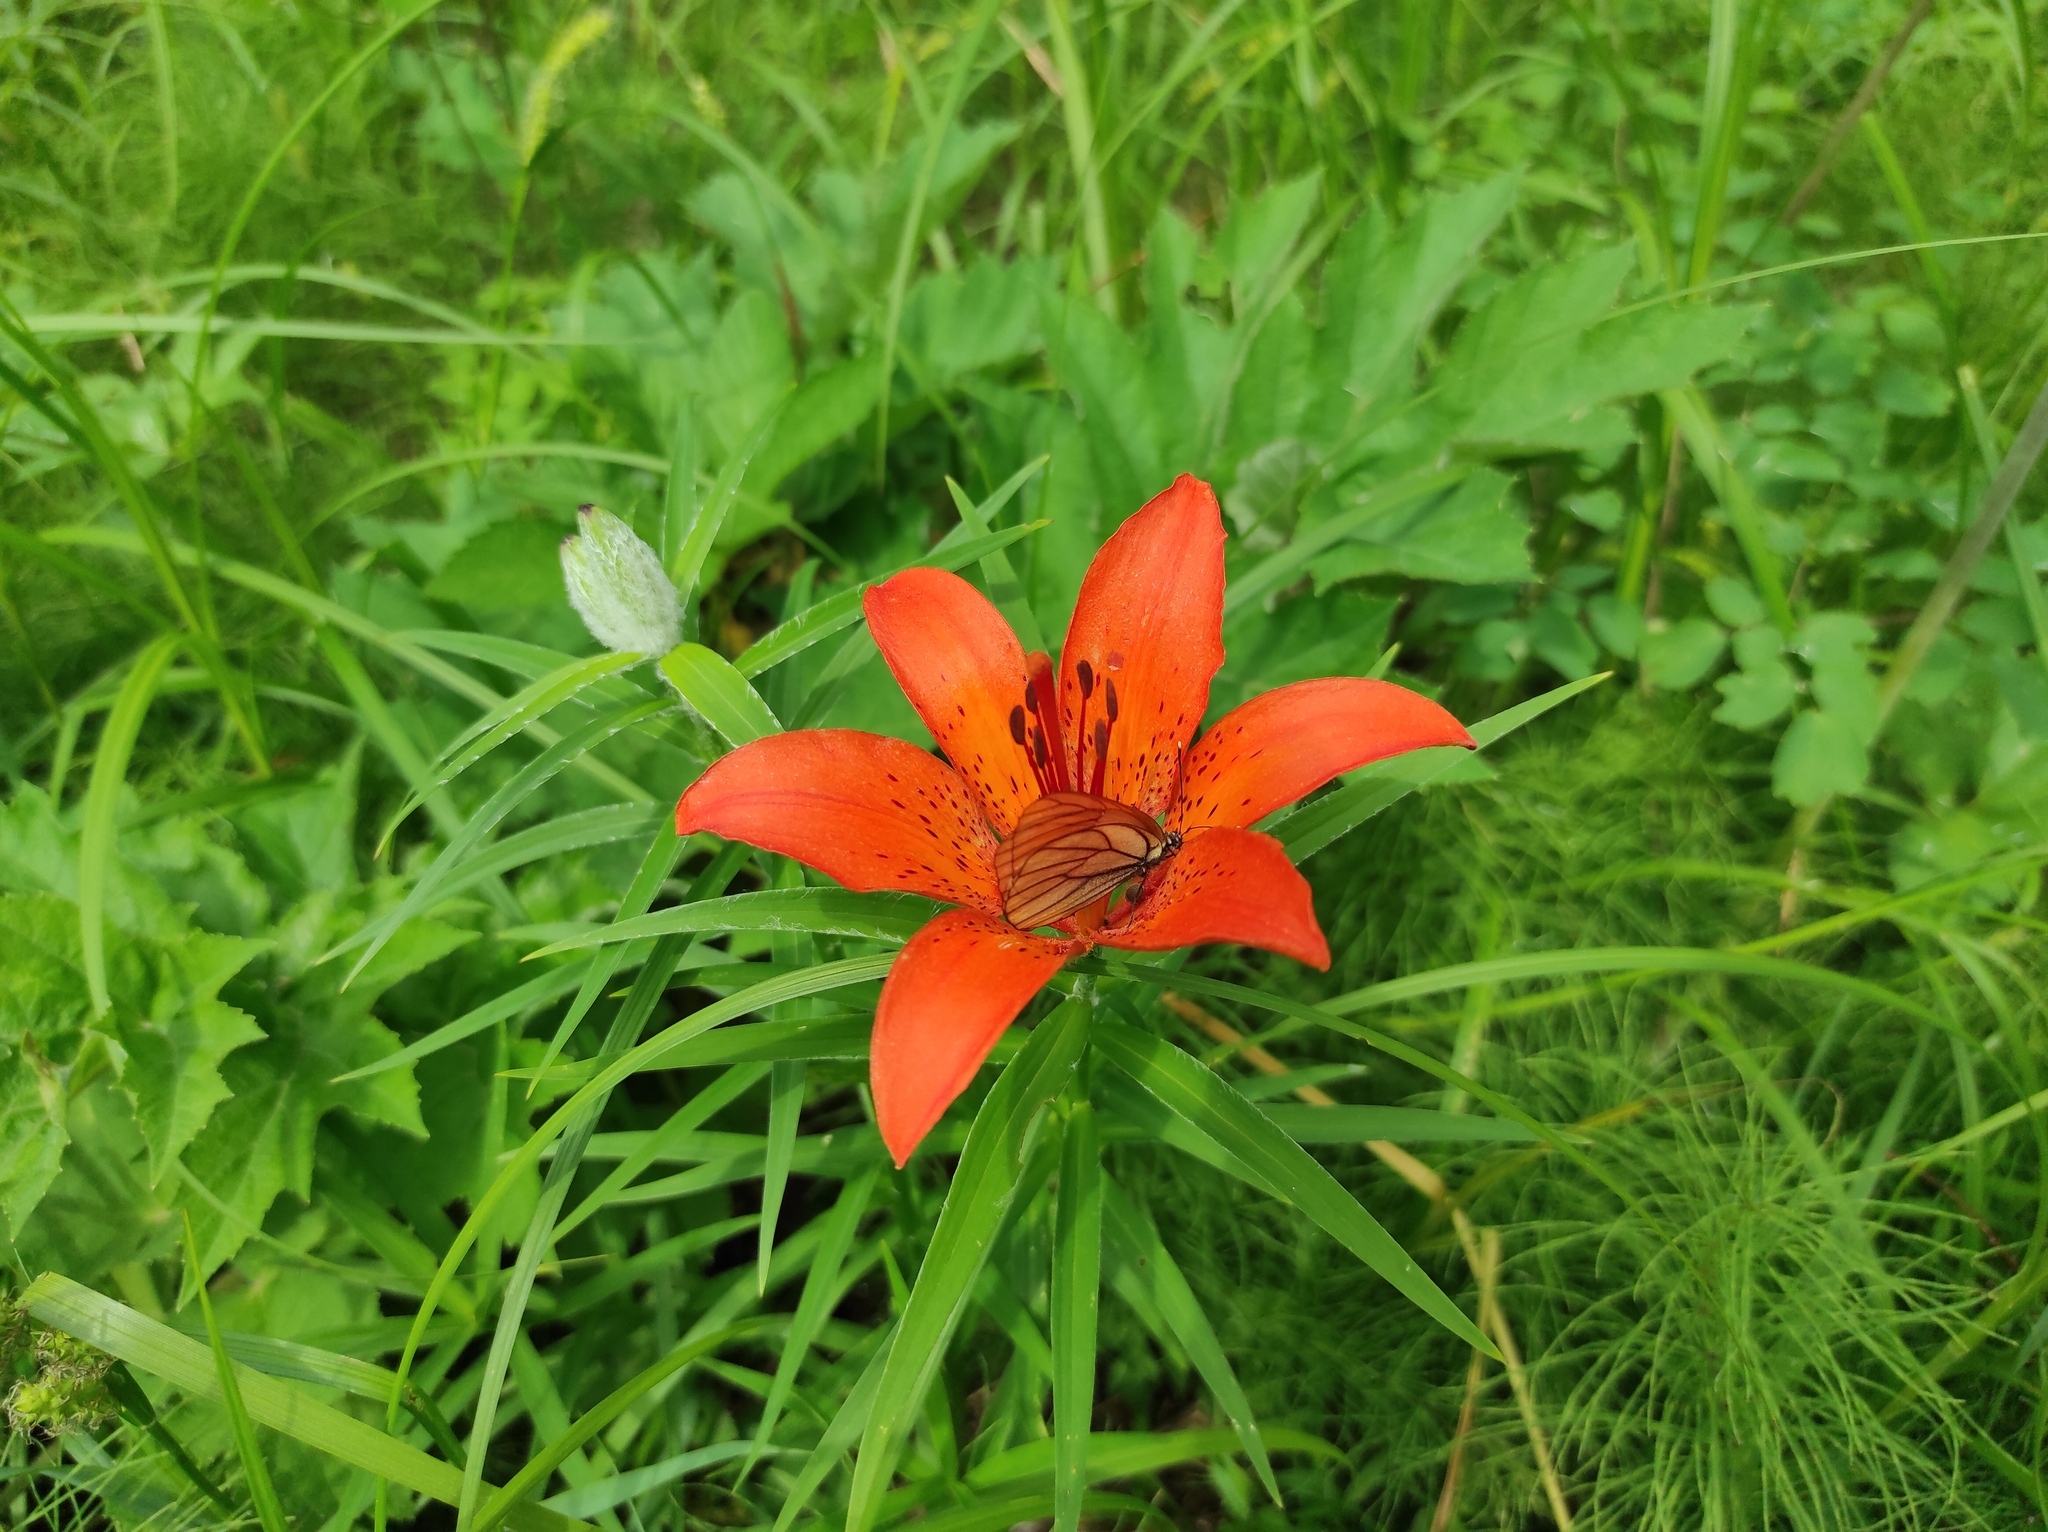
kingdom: Plantae
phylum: Tracheophyta
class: Liliopsida
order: Liliales
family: Liliaceae
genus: Lilium
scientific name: Lilium pensylvanicum
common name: Candlestick lily
